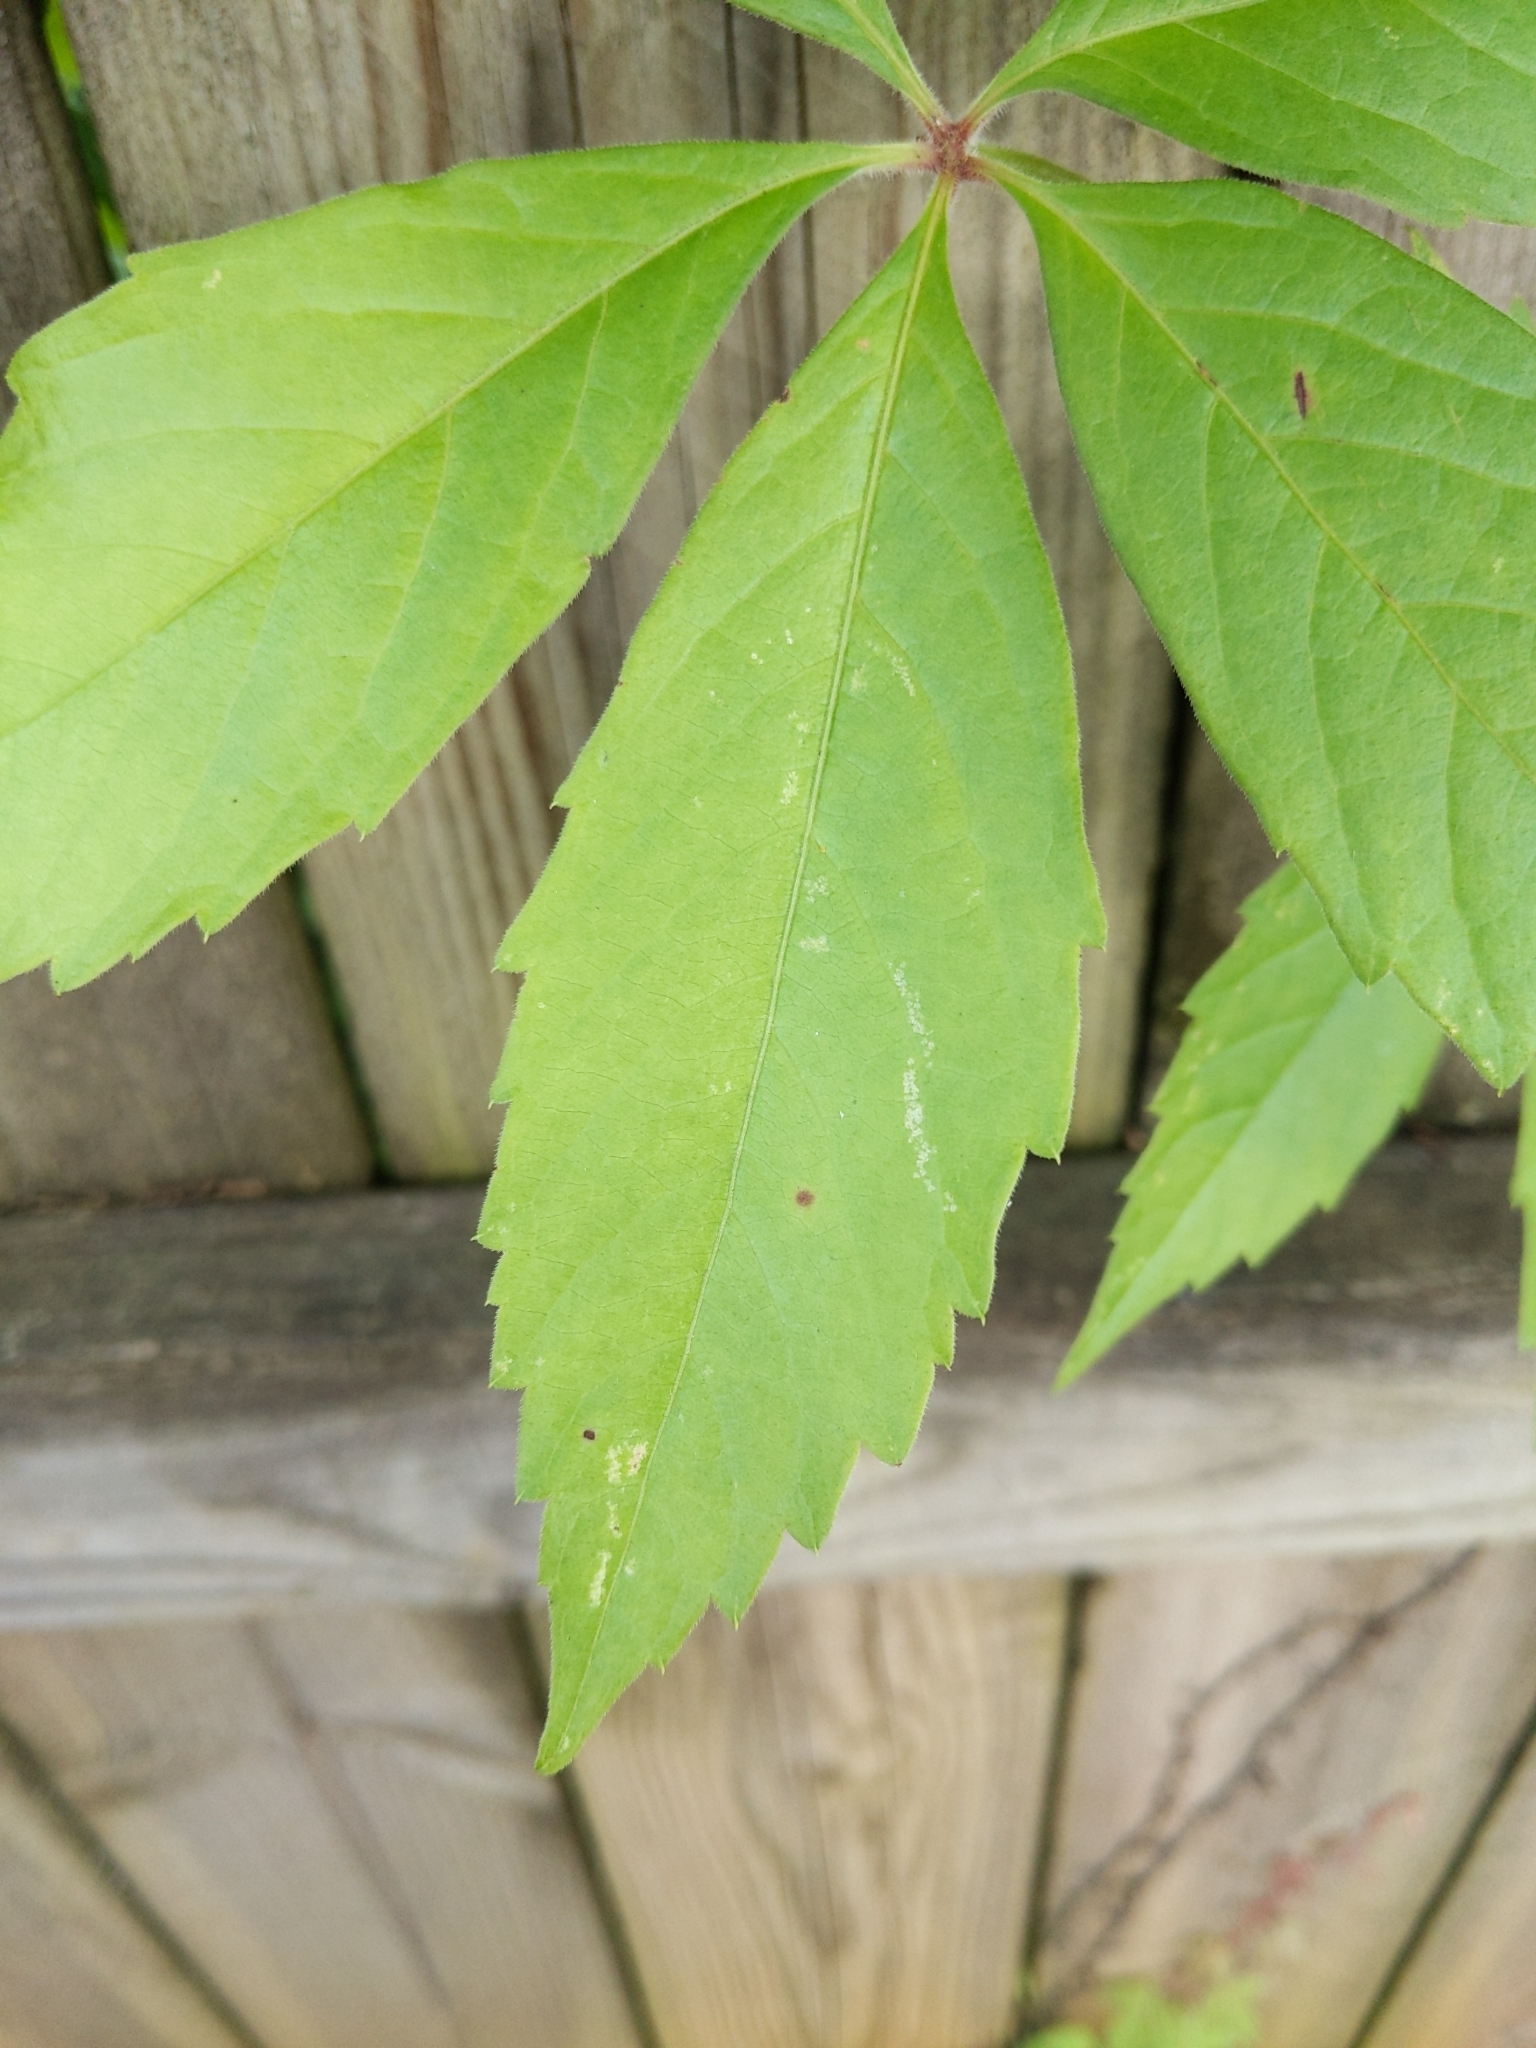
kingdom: Plantae
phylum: Tracheophyta
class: Magnoliopsida
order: Vitales
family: Vitaceae
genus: Parthenocissus
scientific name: Parthenocissus quinquefolia
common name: Virginia-creeper
